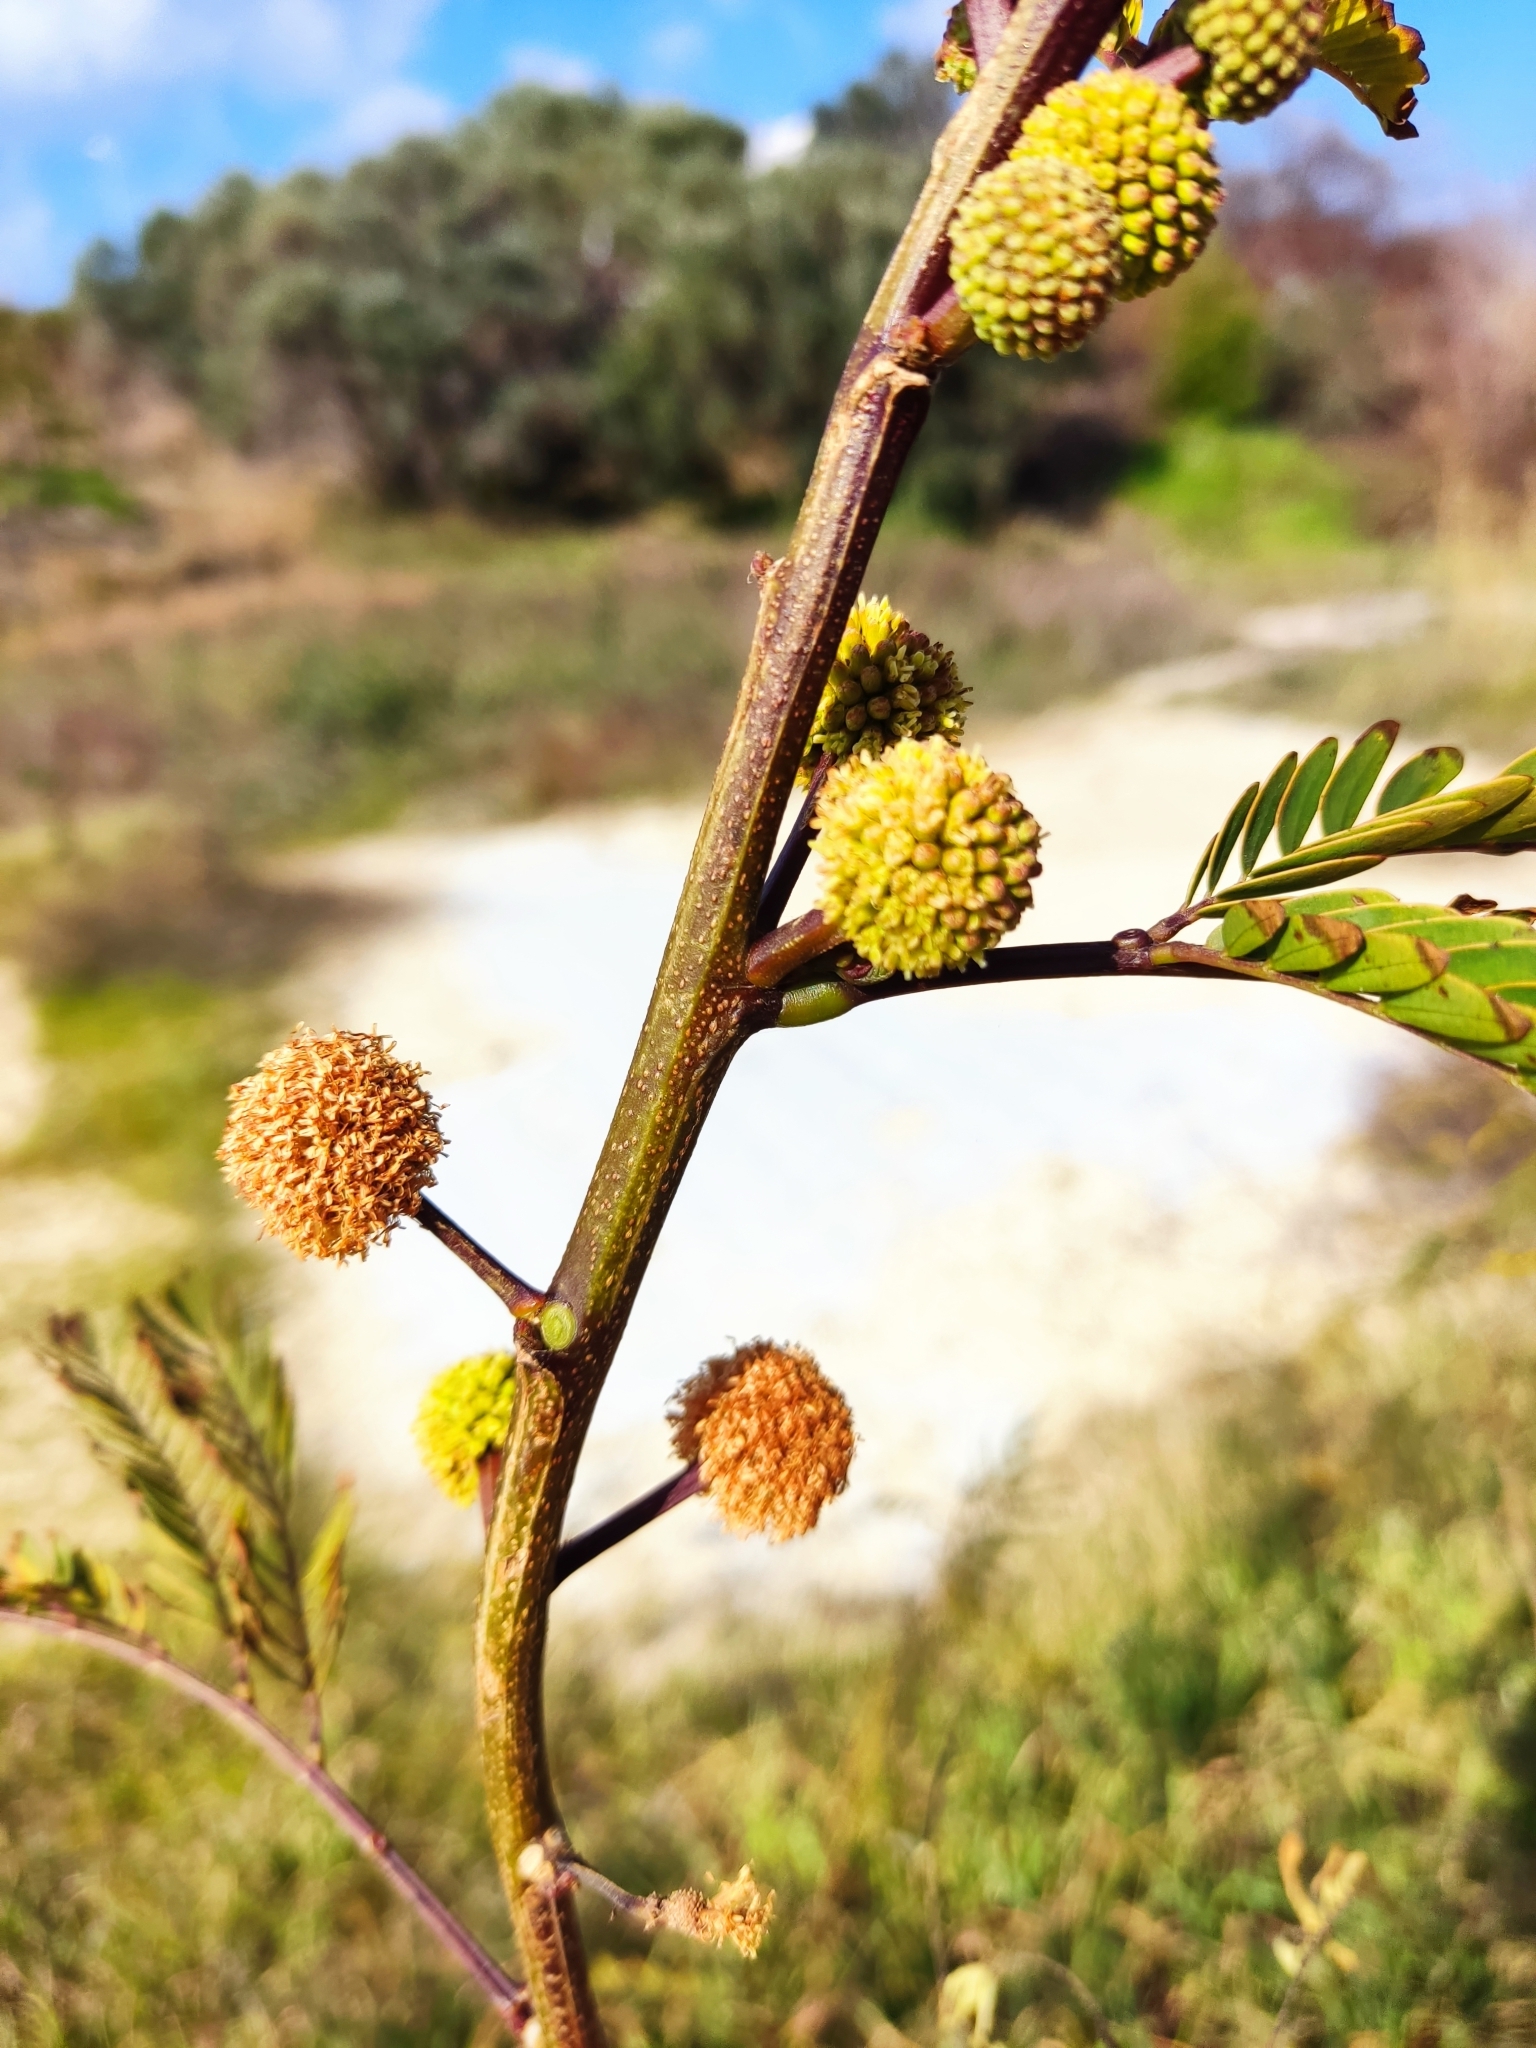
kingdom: Plantae
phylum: Tracheophyta
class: Magnoliopsida
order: Fabales
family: Fabaceae
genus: Leucaena
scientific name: Leucaena leucocephala
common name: White leadtree
